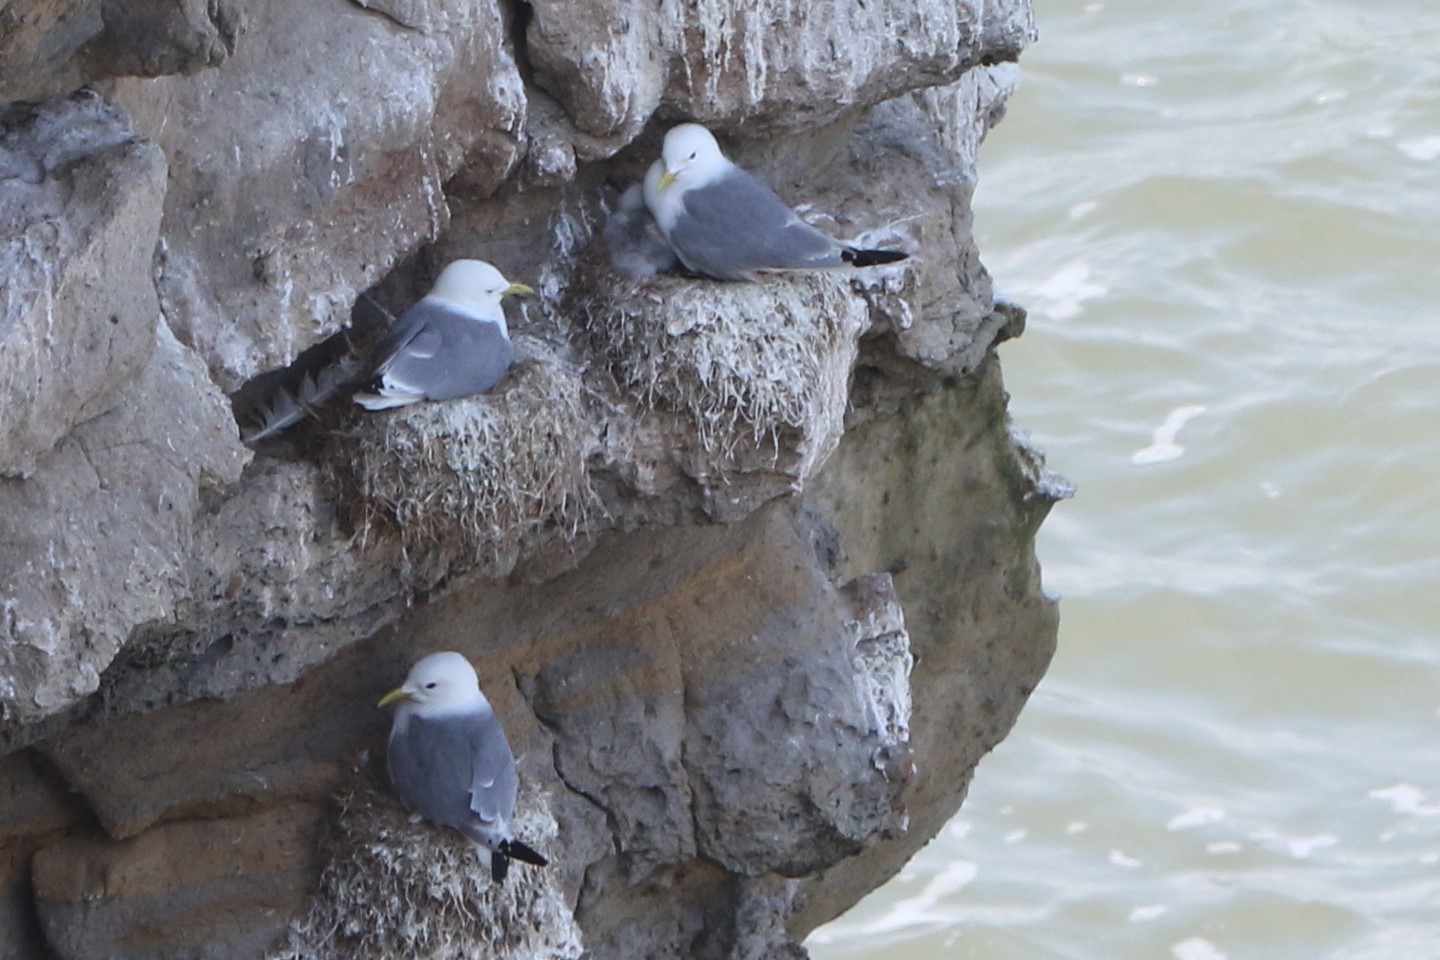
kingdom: Animalia
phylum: Chordata
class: Aves
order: Charadriiformes
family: Laridae
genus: Rissa
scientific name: Rissa tridactyla
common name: Black-legged kittiwake
